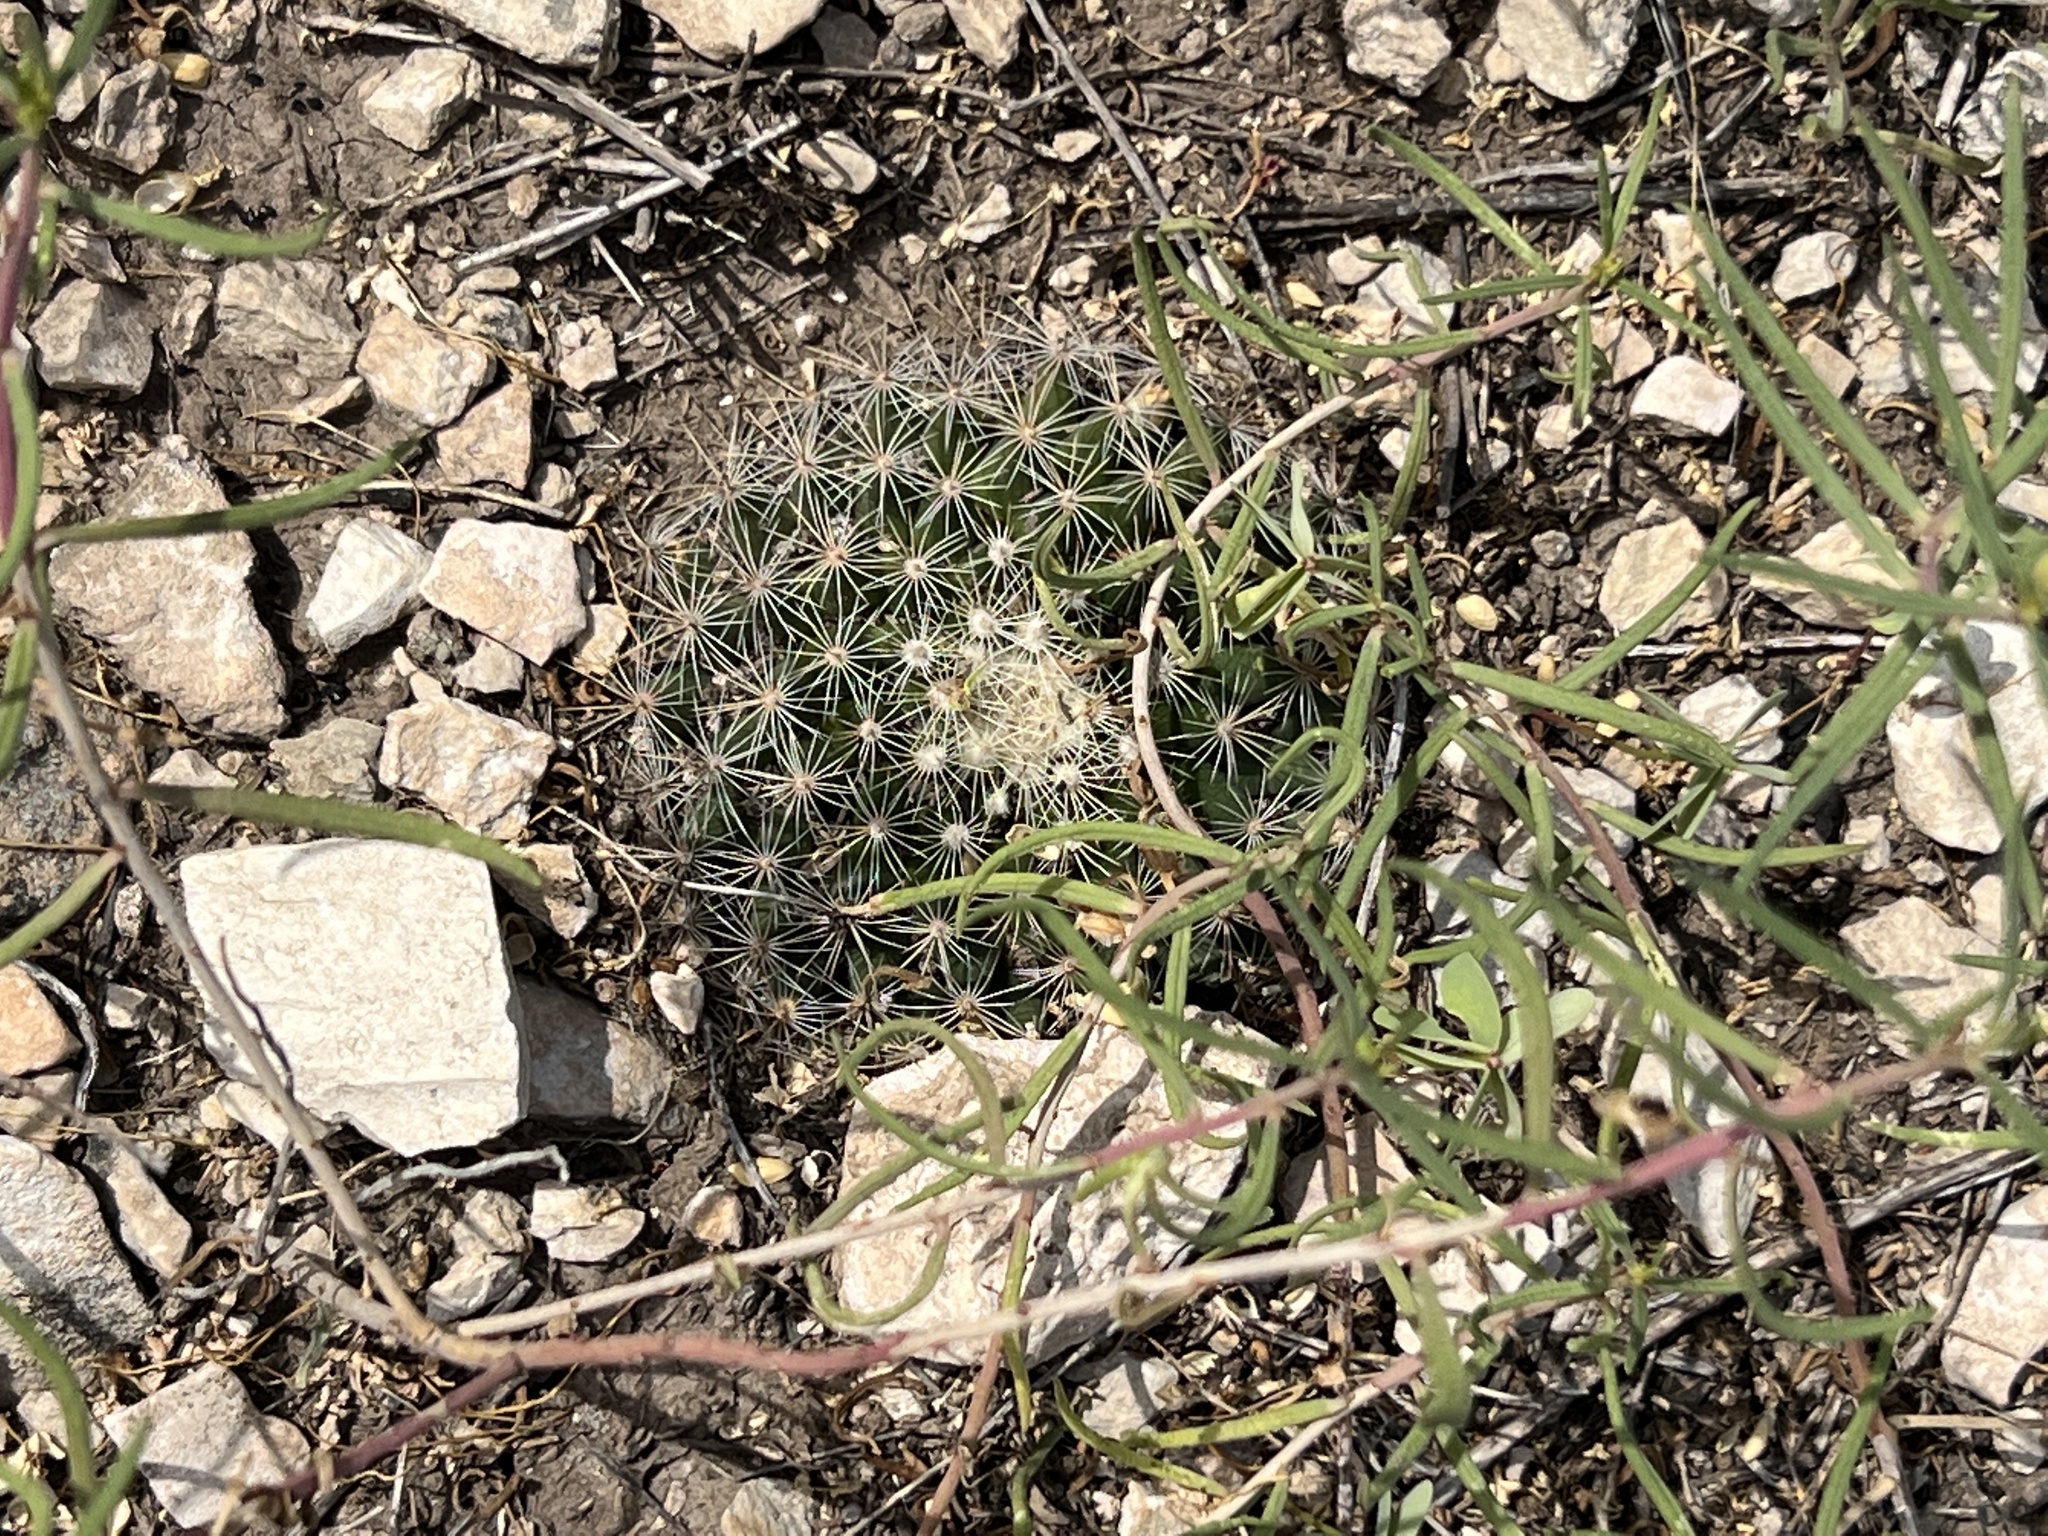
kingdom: Plantae
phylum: Tracheophyta
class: Magnoliopsida
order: Caryophyllales
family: Cactaceae
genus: Mammillaria
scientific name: Mammillaria heyderi
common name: Little nipple cactus
